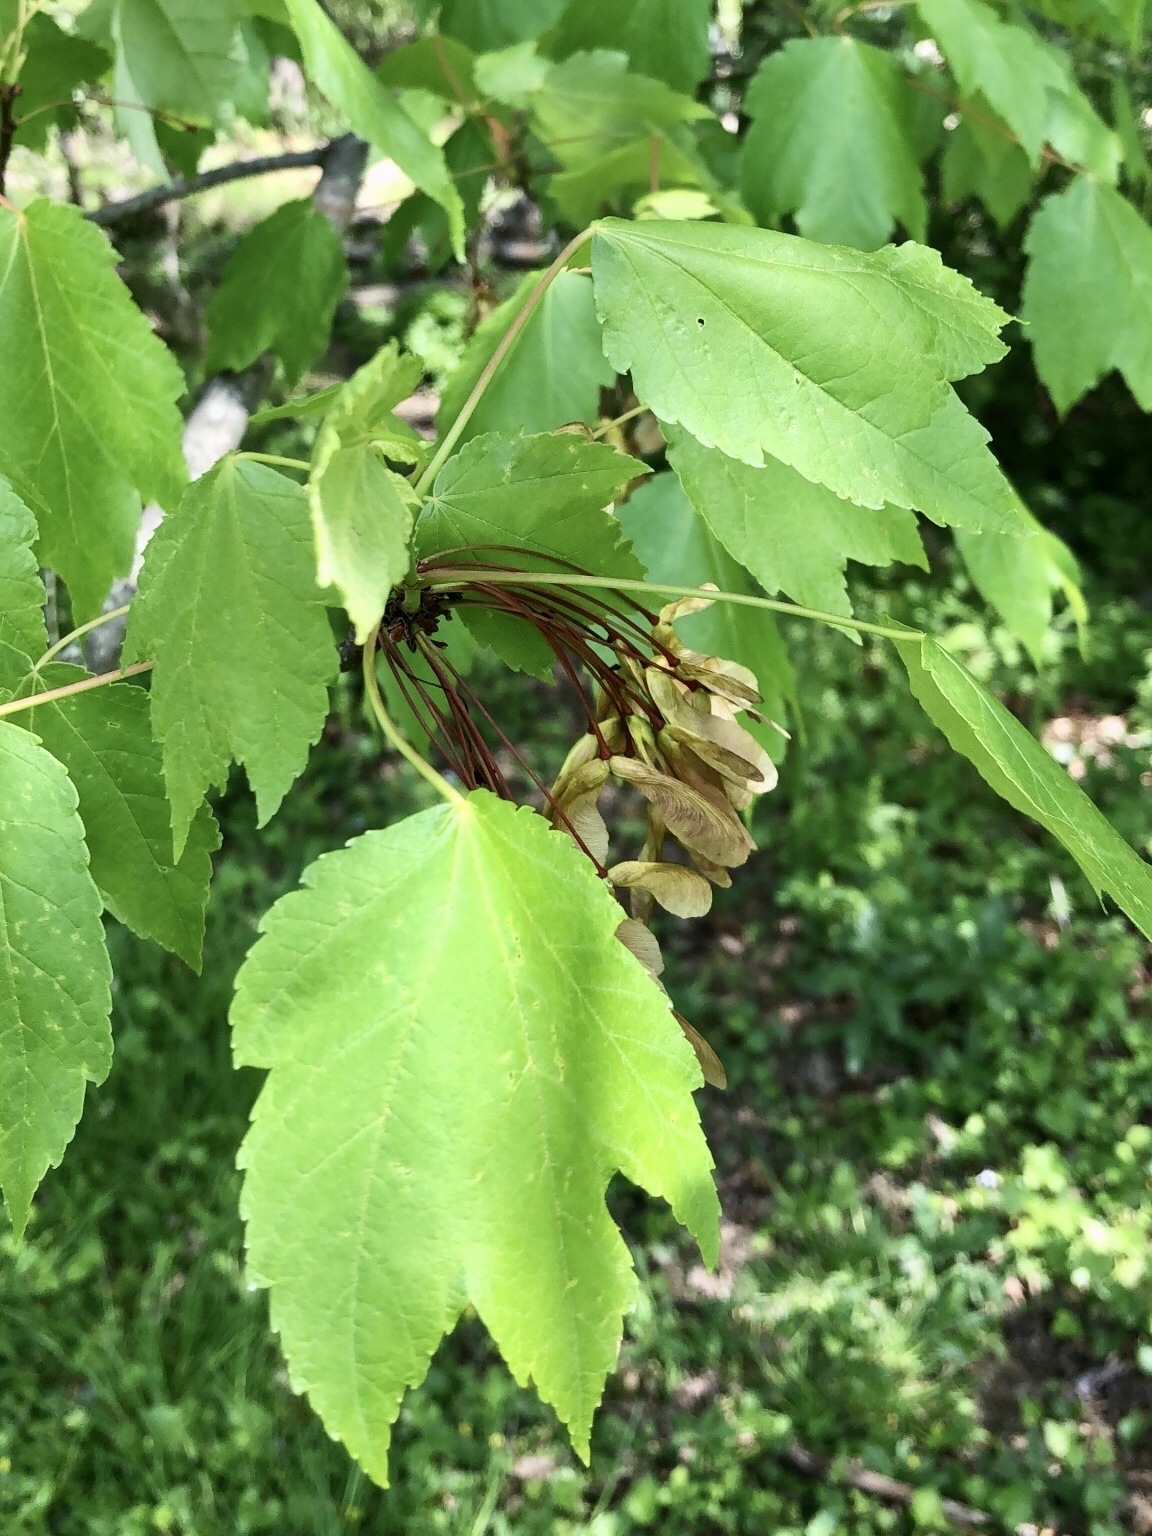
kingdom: Plantae
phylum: Tracheophyta
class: Magnoliopsida
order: Sapindales
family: Sapindaceae
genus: Acer
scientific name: Acer rubrum
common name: Red maple
